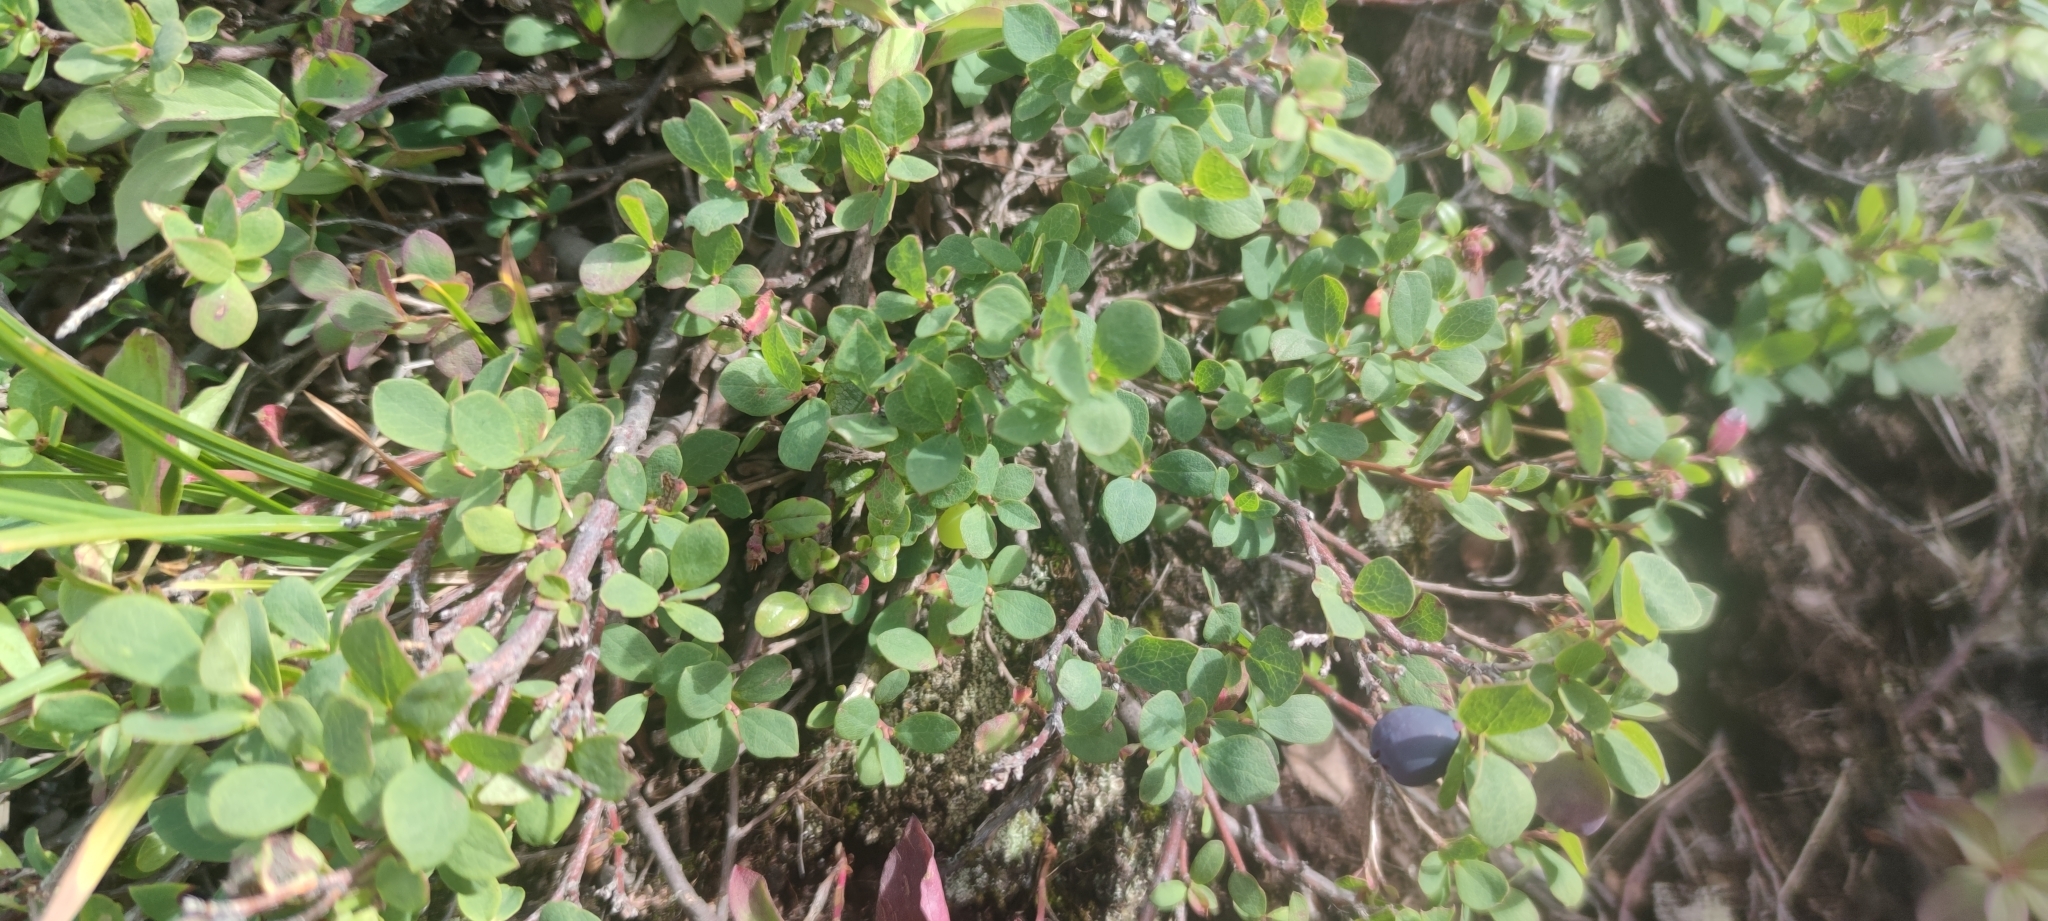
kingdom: Plantae
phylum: Tracheophyta
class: Magnoliopsida
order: Ericales
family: Ericaceae
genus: Vaccinium
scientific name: Vaccinium uliginosum
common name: Bog bilberry
